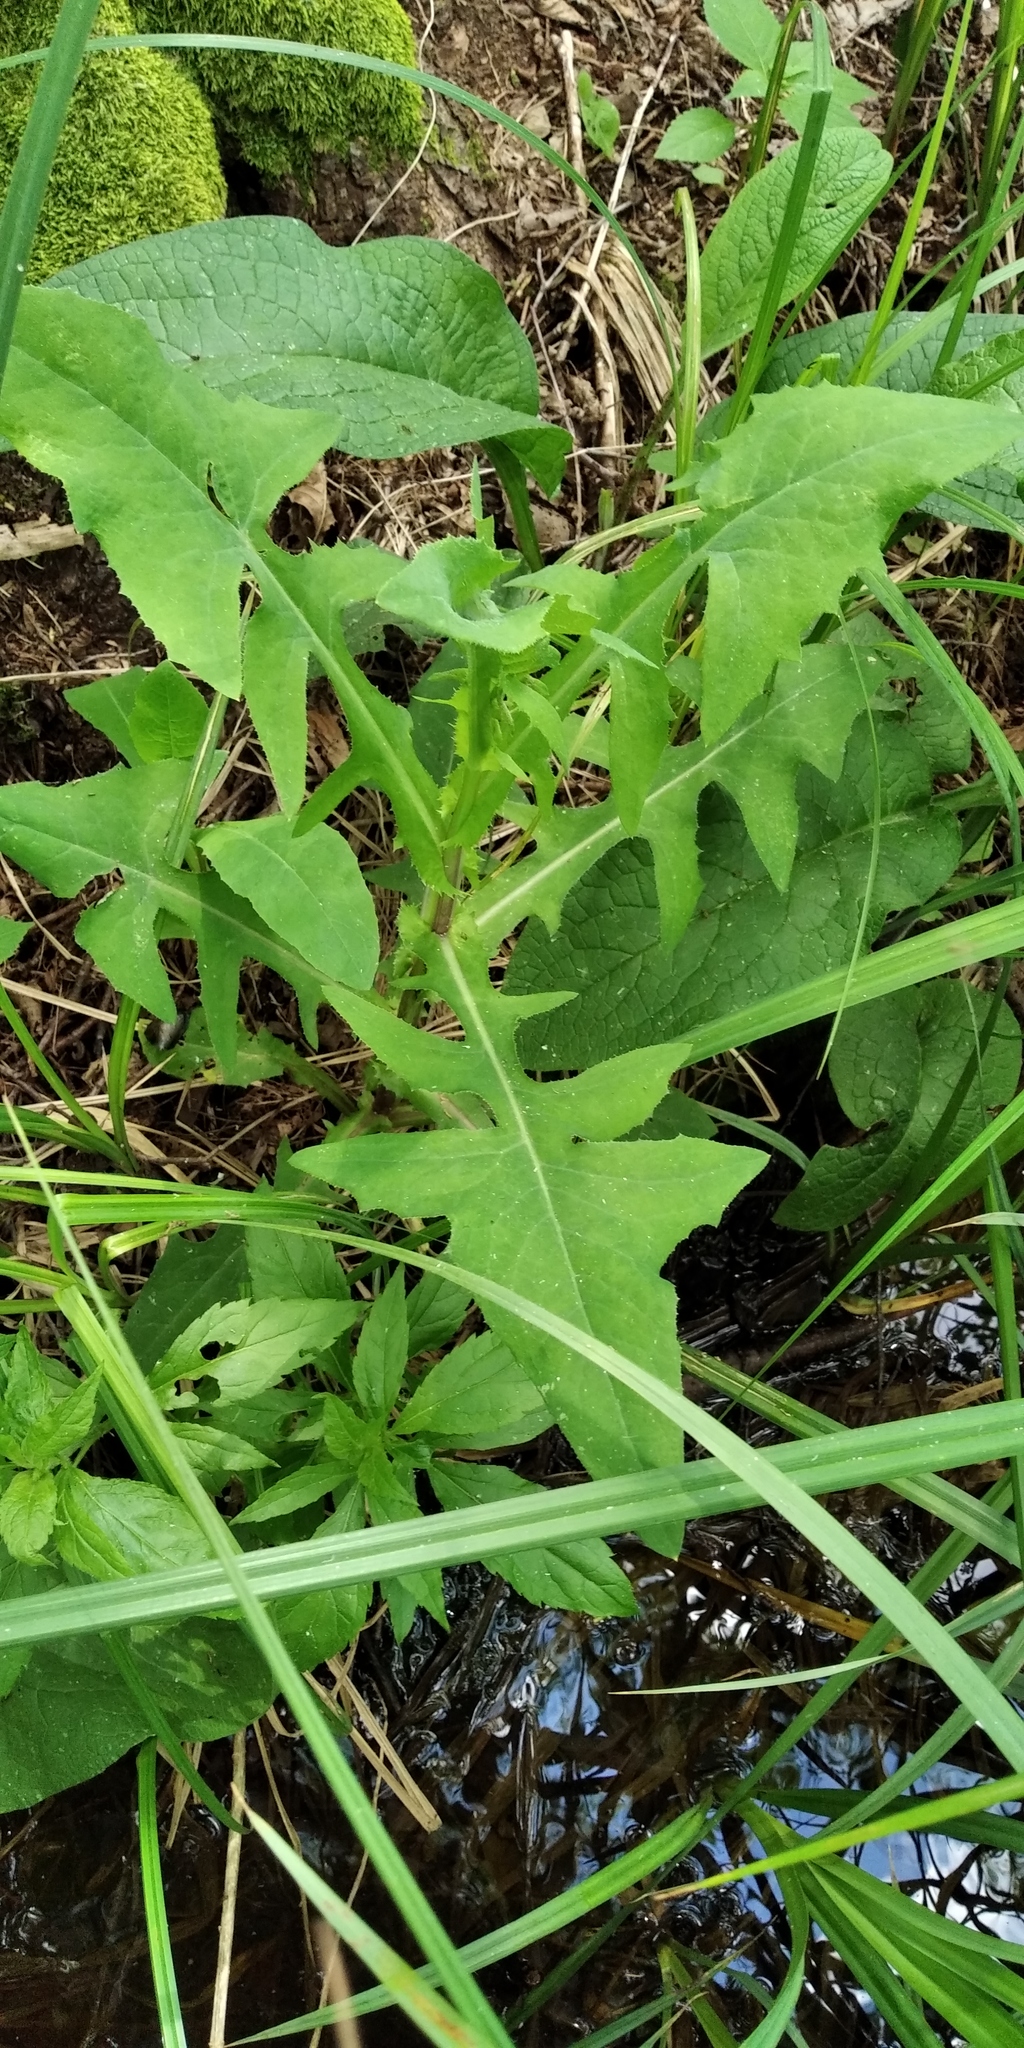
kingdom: Plantae
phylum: Tracheophyta
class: Magnoliopsida
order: Asterales
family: Asteraceae
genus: Sonchus
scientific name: Sonchus palustris
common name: Marsh sow-thistle
